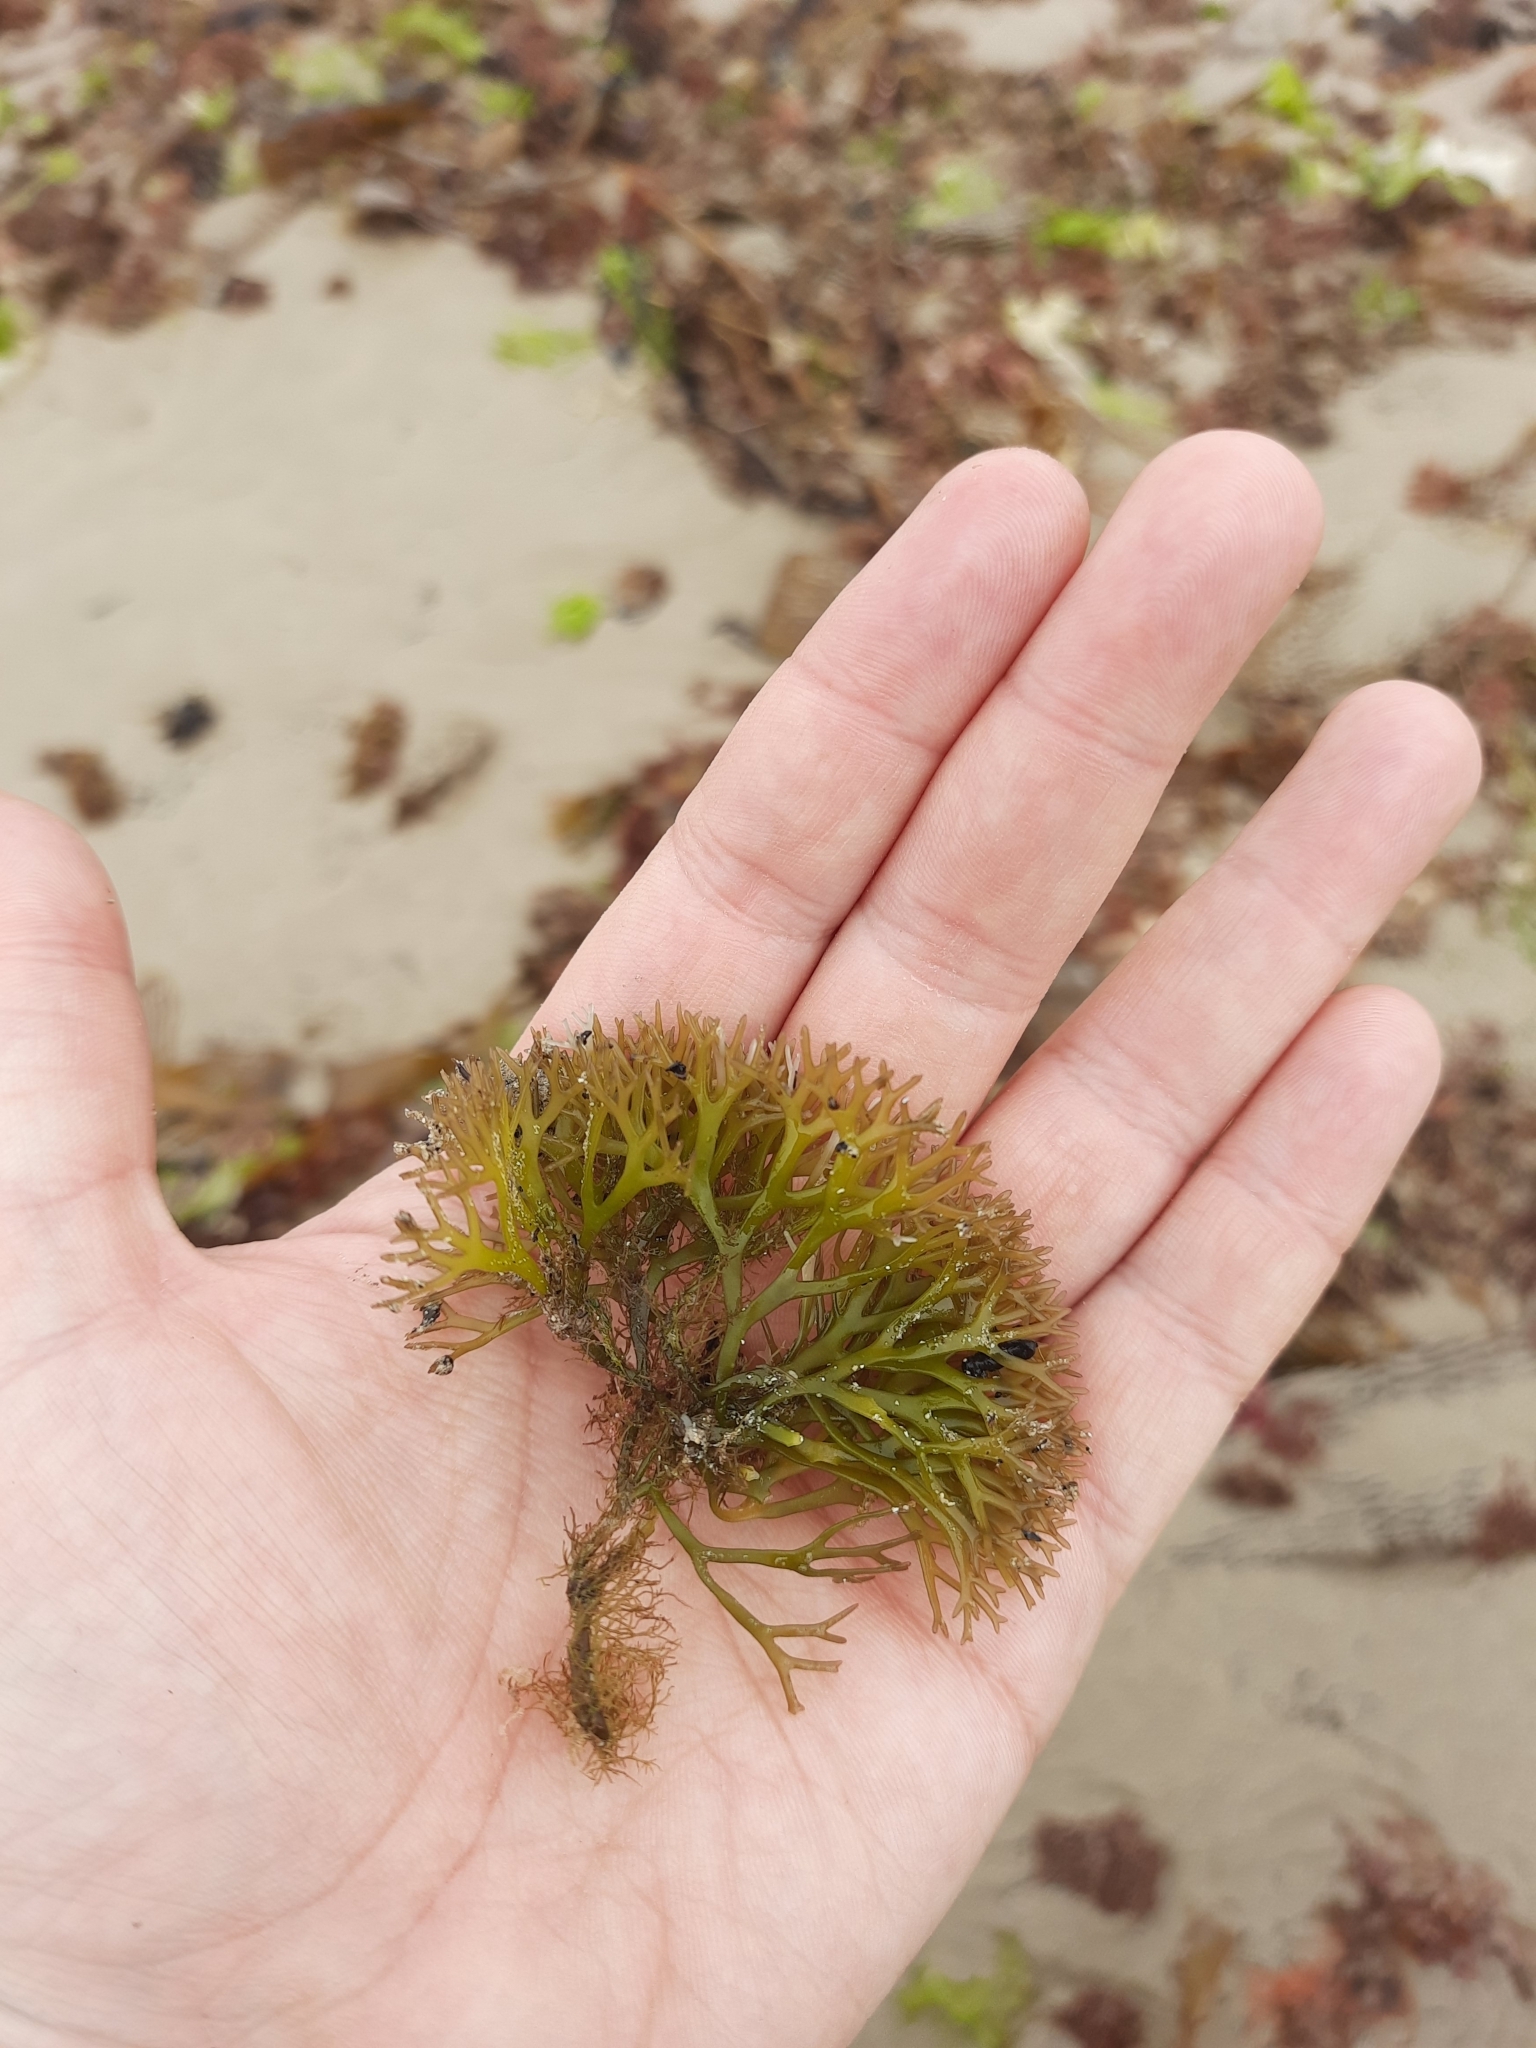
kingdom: Plantae
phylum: Rhodophyta
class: Florideophyceae
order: Gigartinales
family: Gigartinaceae
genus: Gigartina
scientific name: Gigartina clavifera
